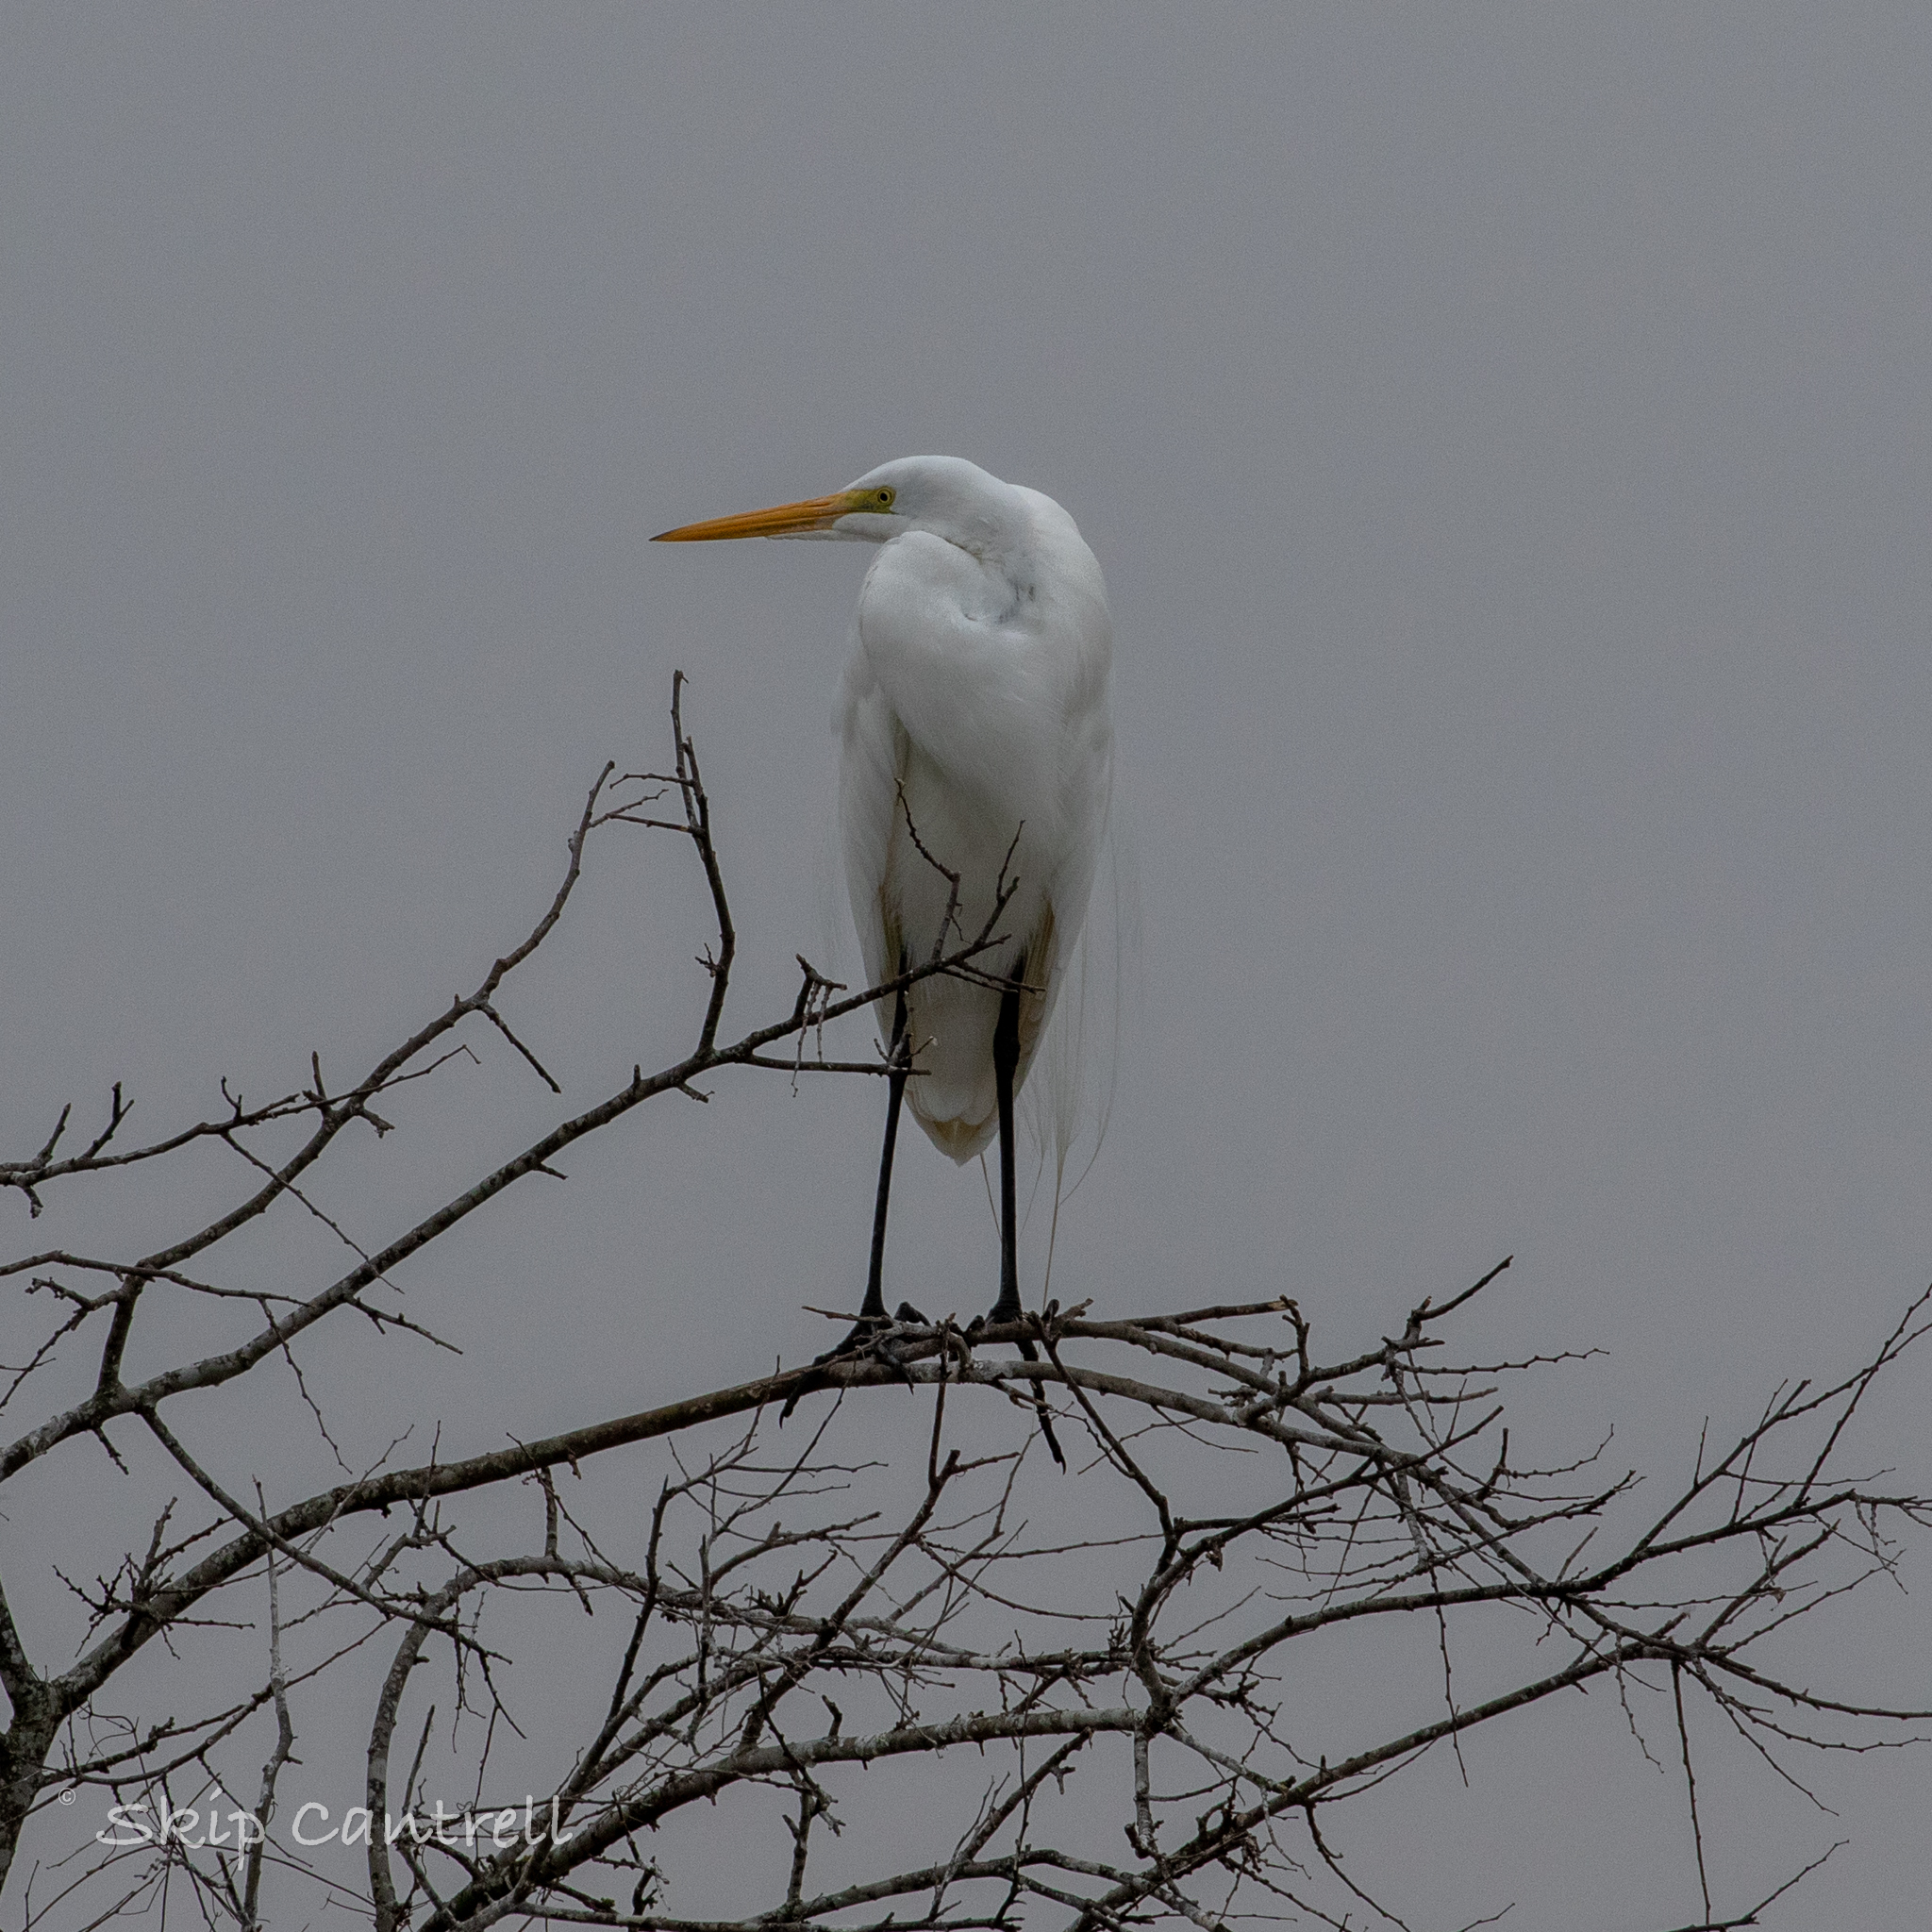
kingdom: Animalia
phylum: Chordata
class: Aves
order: Pelecaniformes
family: Ardeidae
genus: Ardea
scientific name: Ardea alba
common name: Great egret
